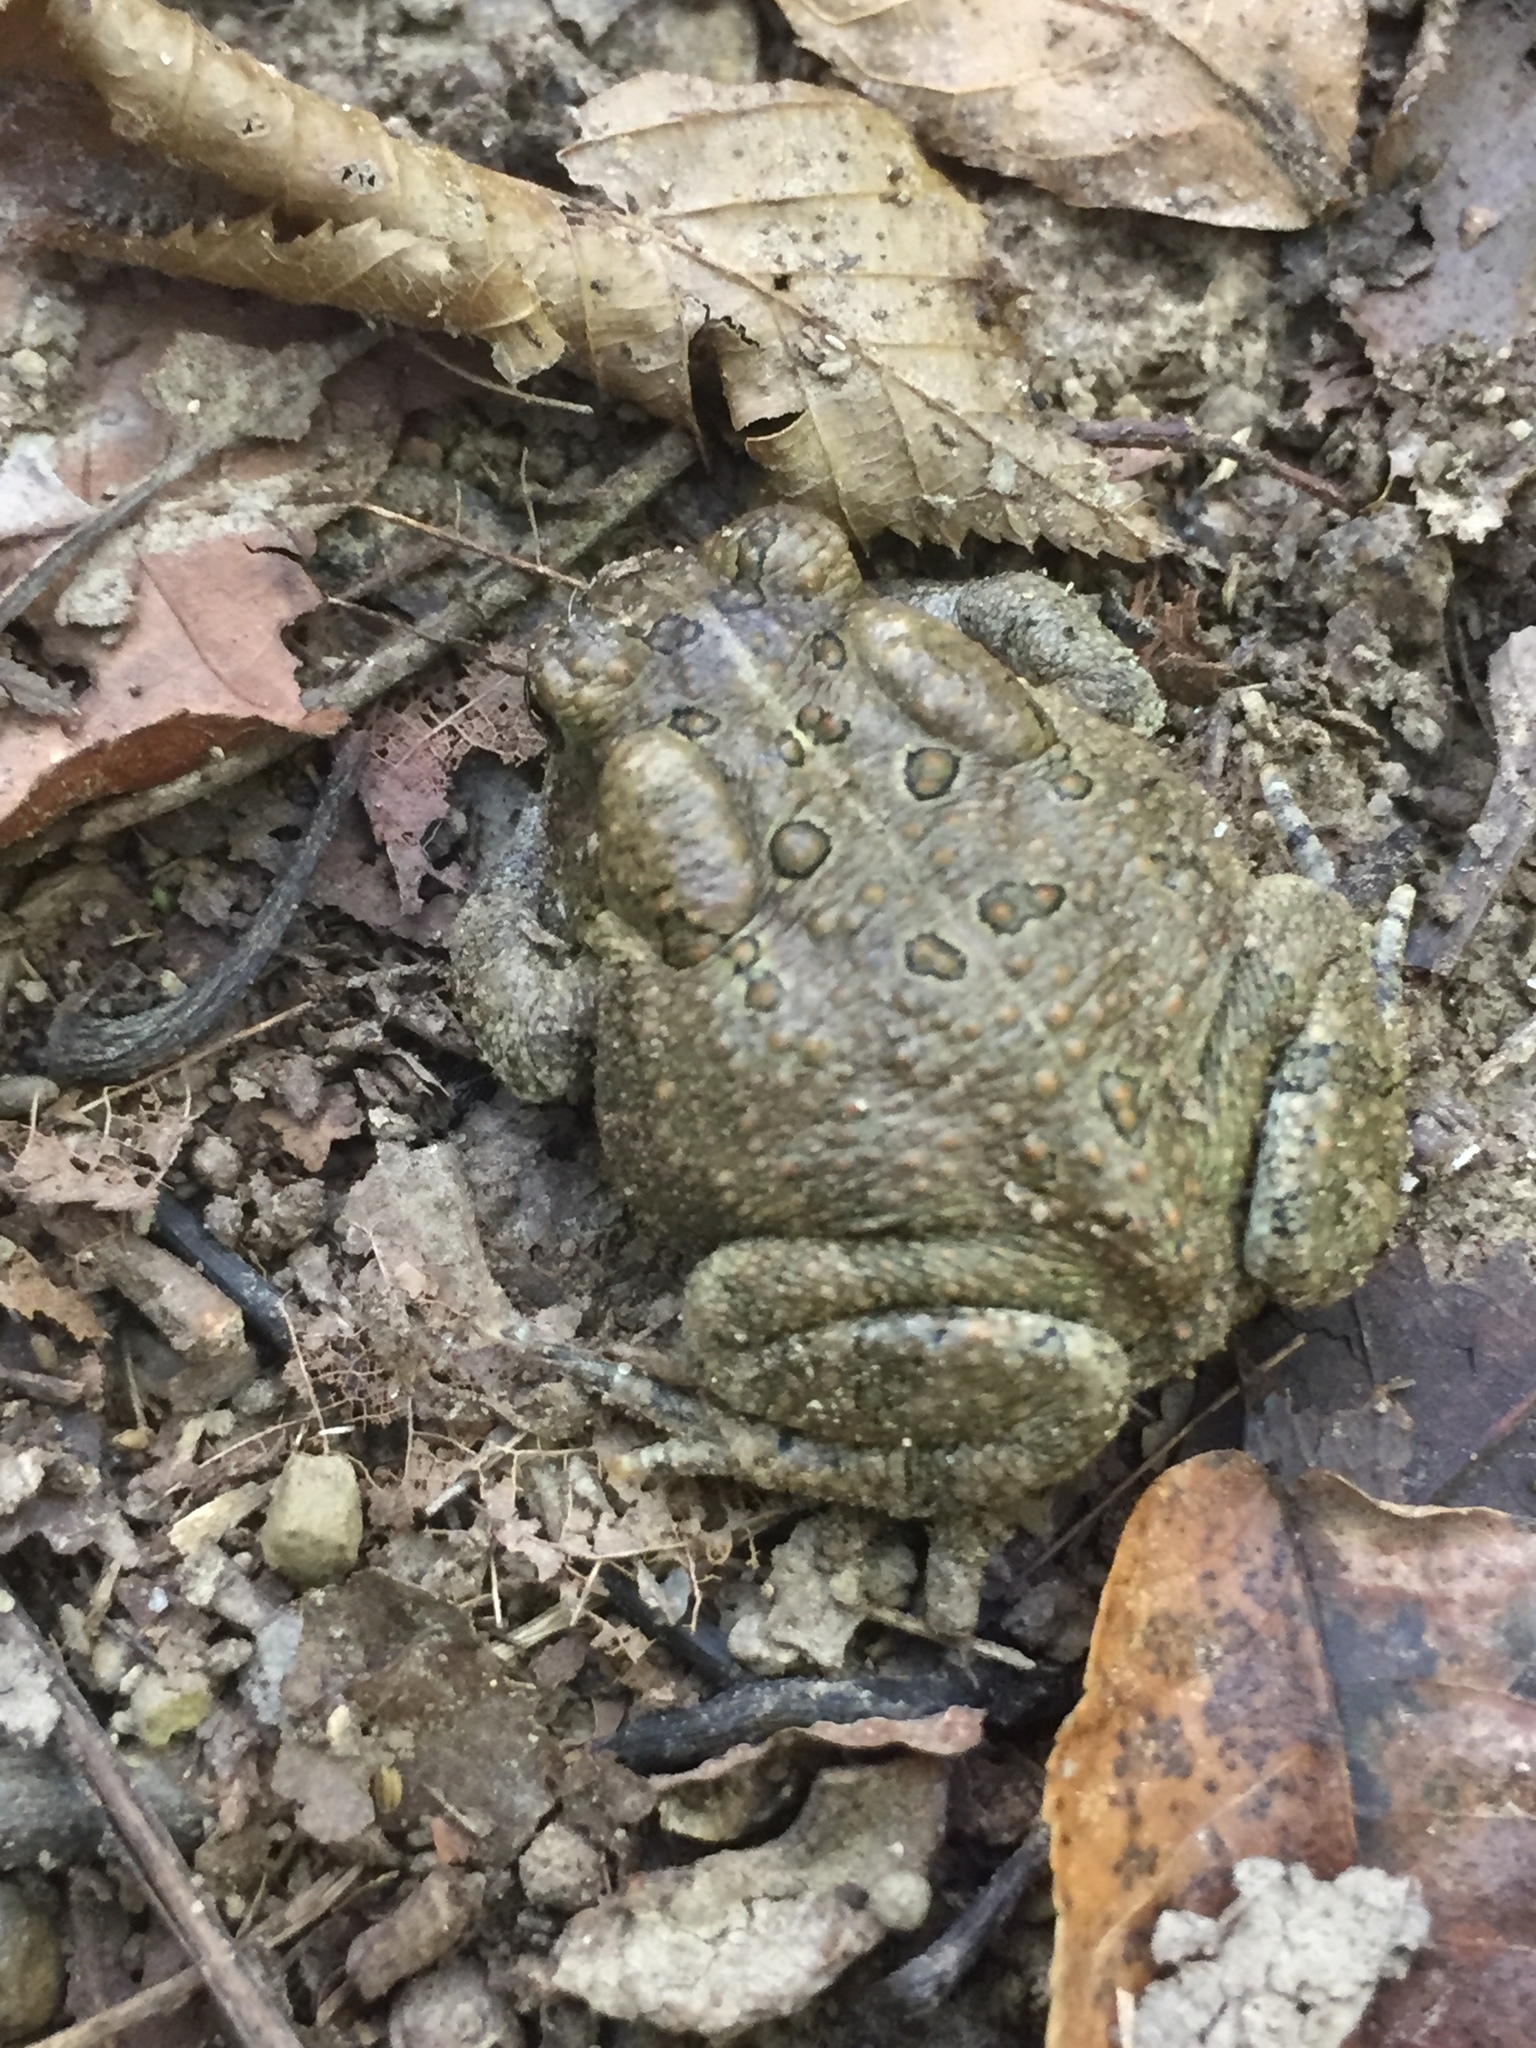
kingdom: Animalia
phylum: Chordata
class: Amphibia
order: Anura
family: Bufonidae
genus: Anaxyrus
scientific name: Anaxyrus americanus
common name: American toad
